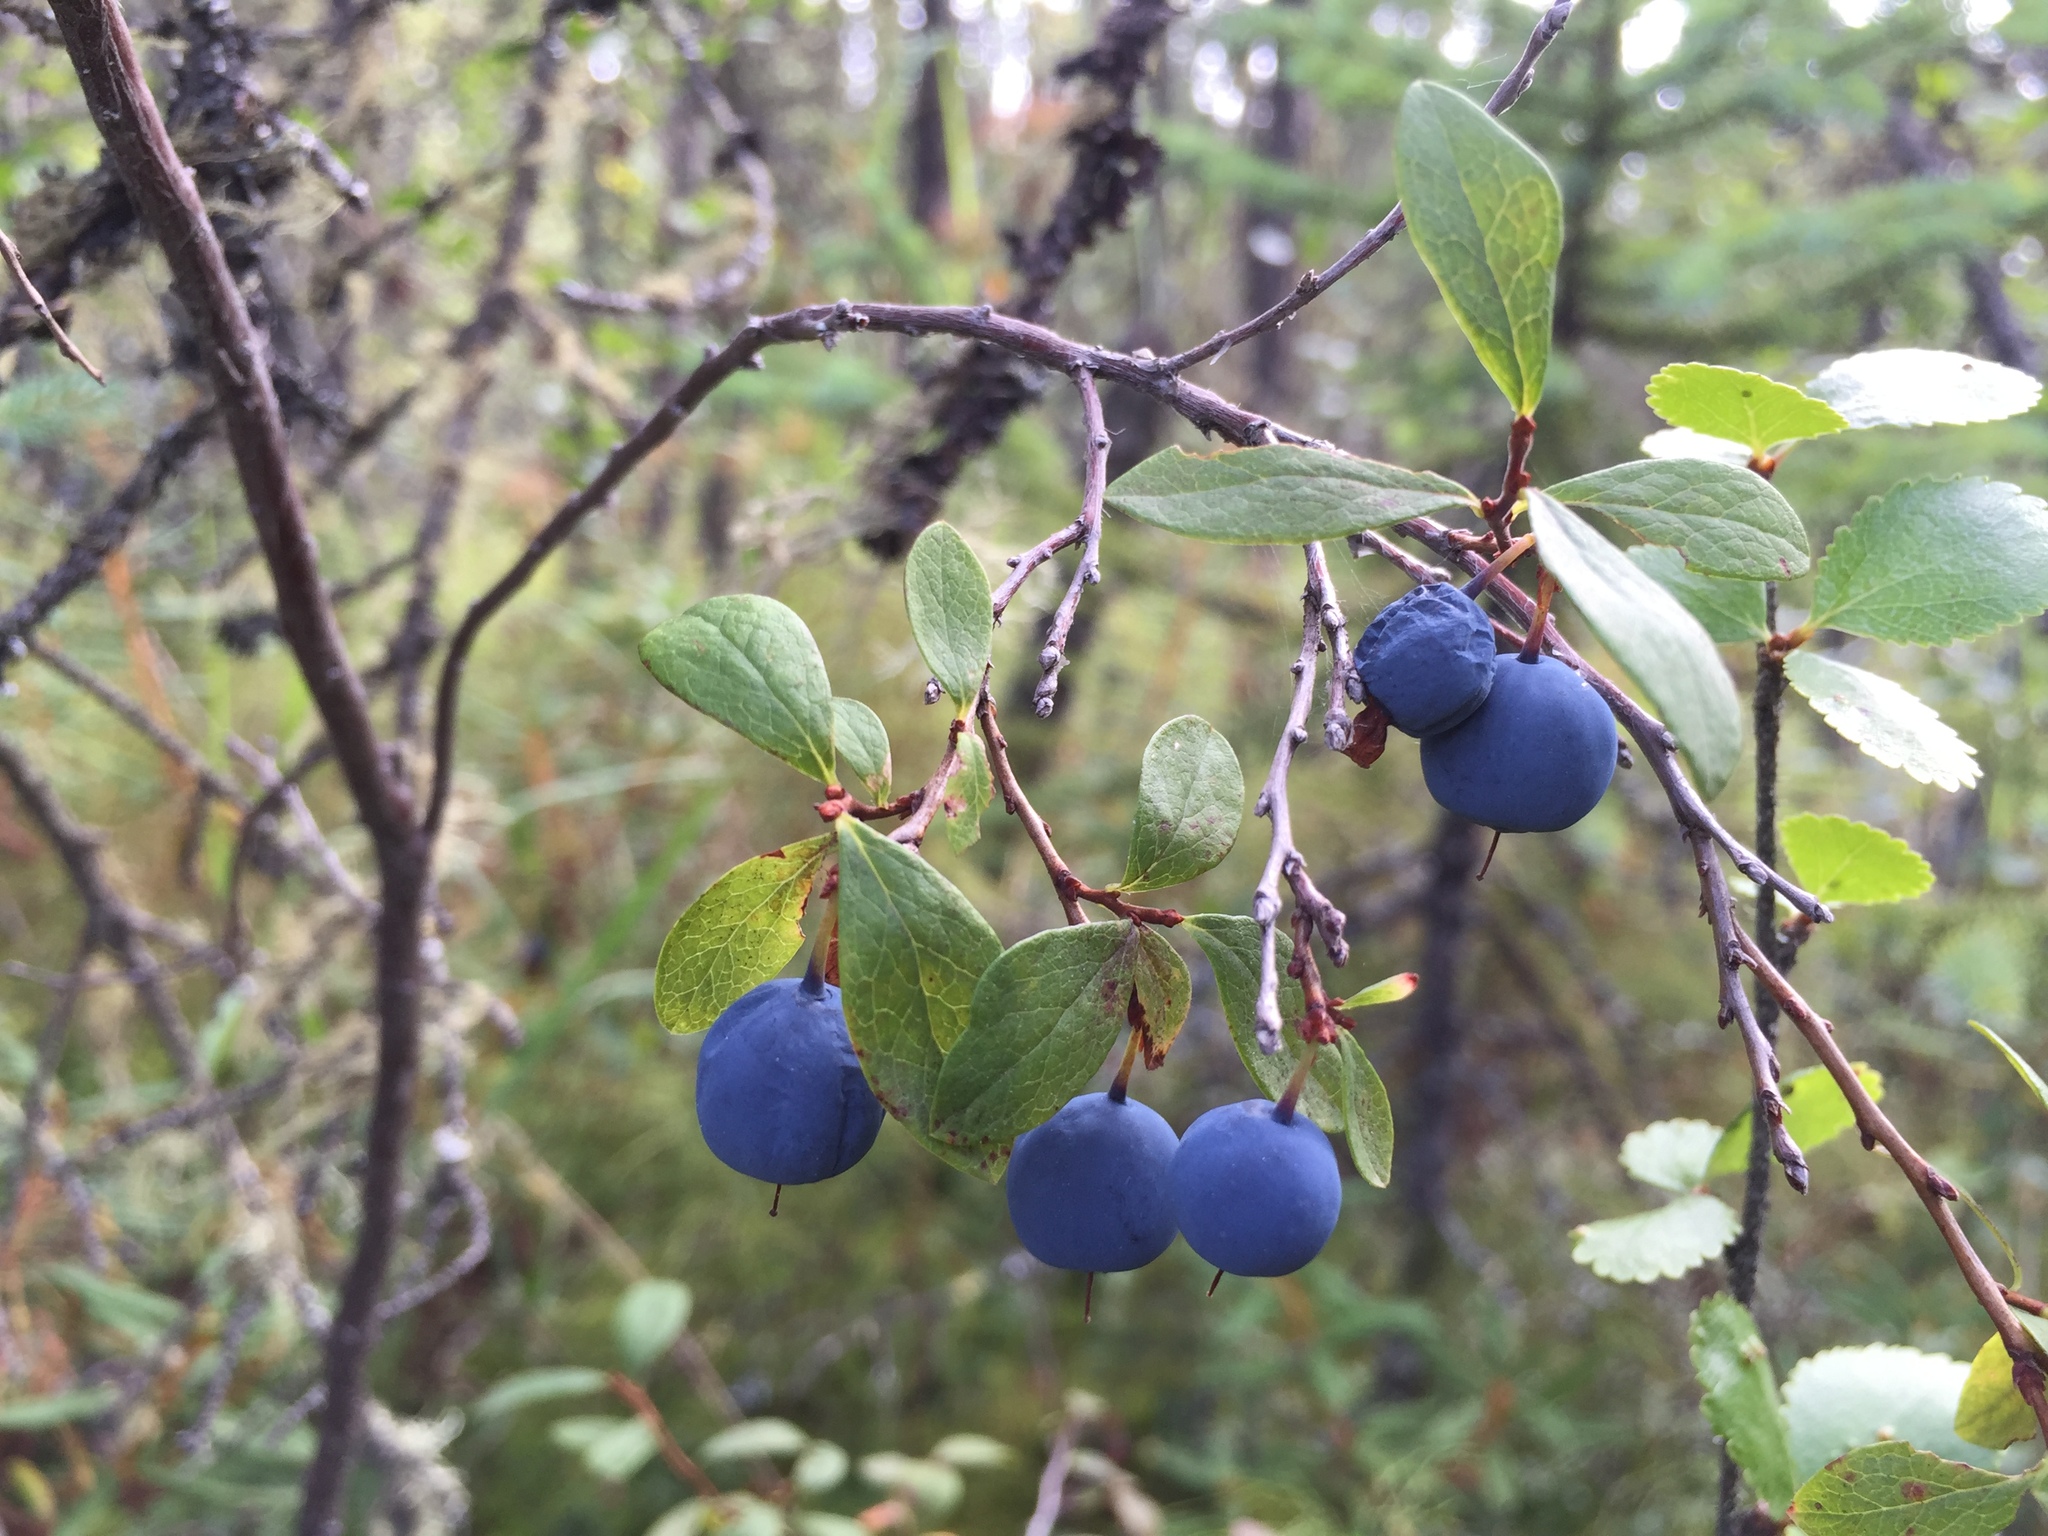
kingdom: Plantae
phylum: Tracheophyta
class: Magnoliopsida
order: Ericales
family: Ericaceae
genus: Vaccinium
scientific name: Vaccinium uliginosum
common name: Bog bilberry
